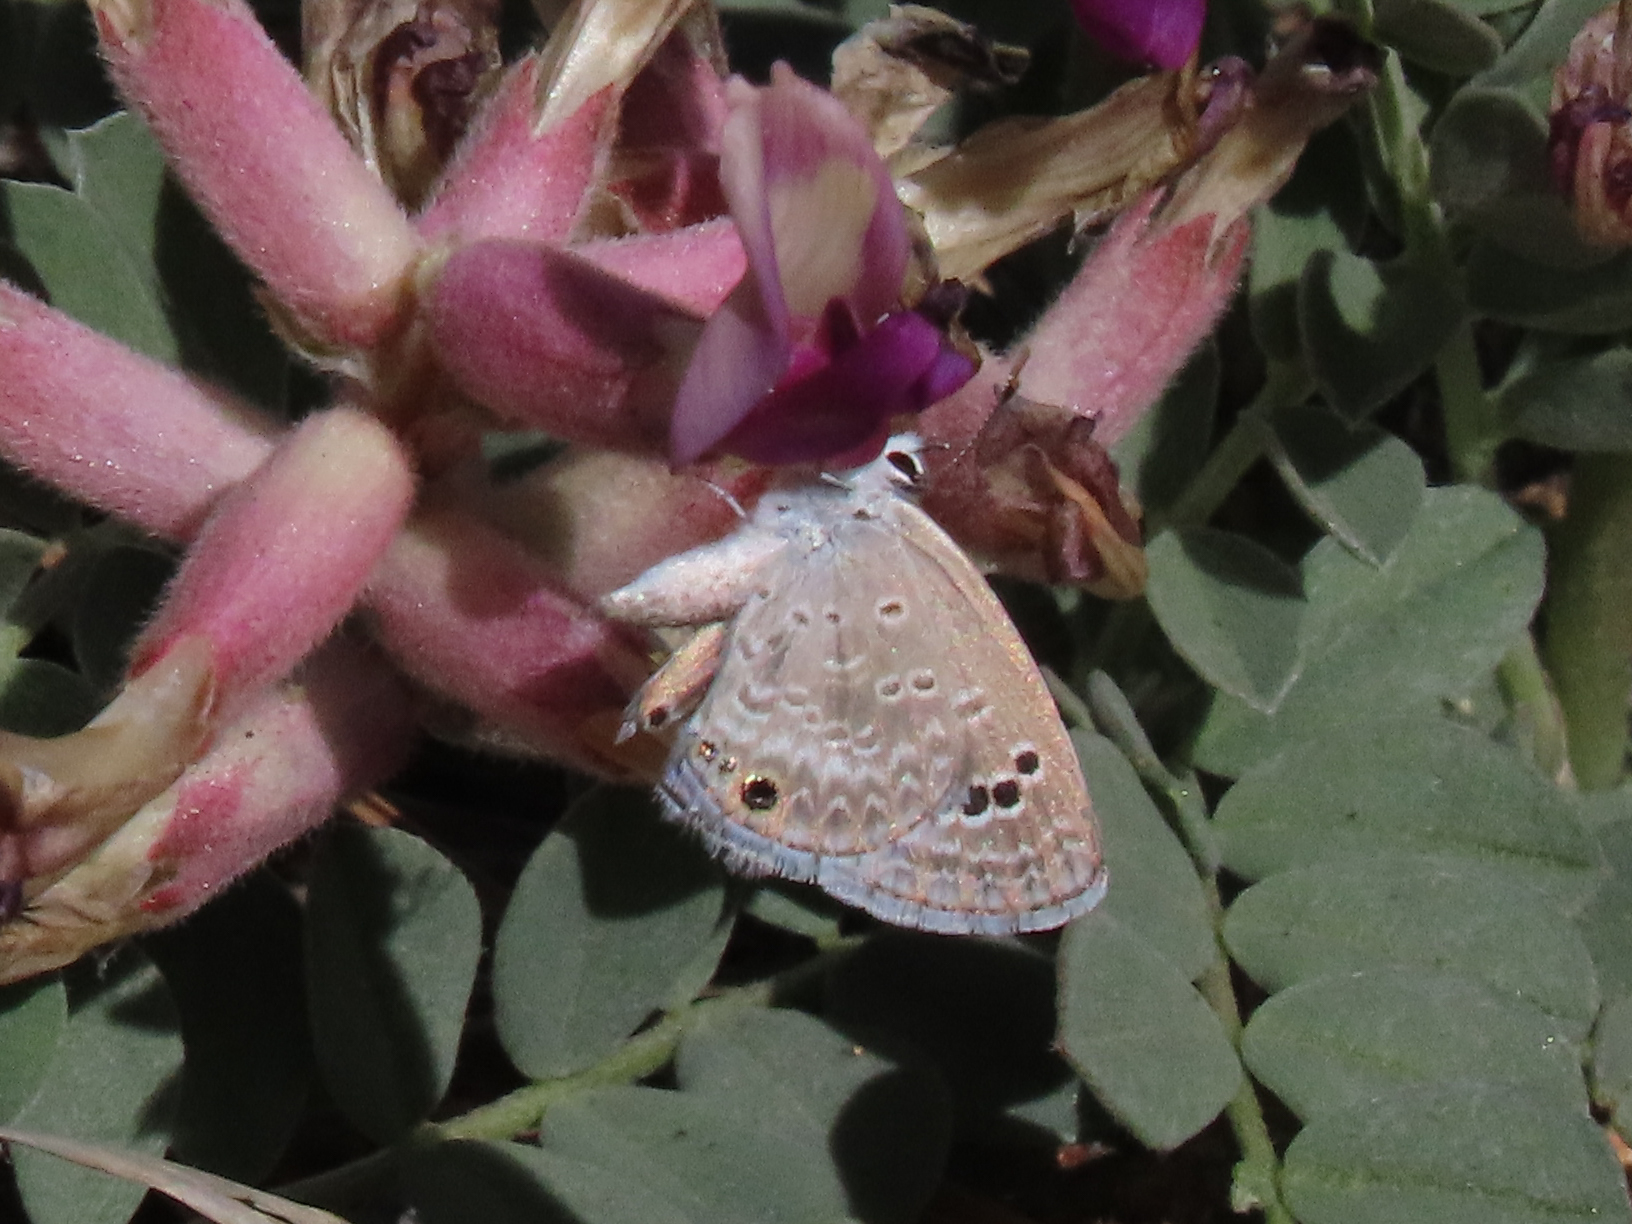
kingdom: Animalia
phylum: Arthropoda
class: Insecta
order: Lepidoptera
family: Lycaenidae
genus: Echinargus
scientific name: Echinargus isola
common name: Reakirt's blue
